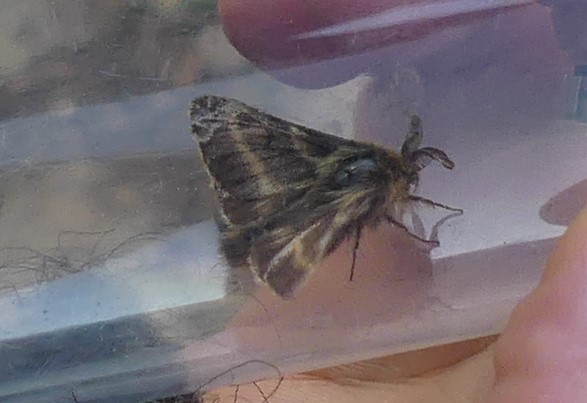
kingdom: Animalia
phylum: Arthropoda
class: Insecta
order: Lepidoptera
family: Lasiocampidae
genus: Malacosoma
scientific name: Malacosoma alpicola
